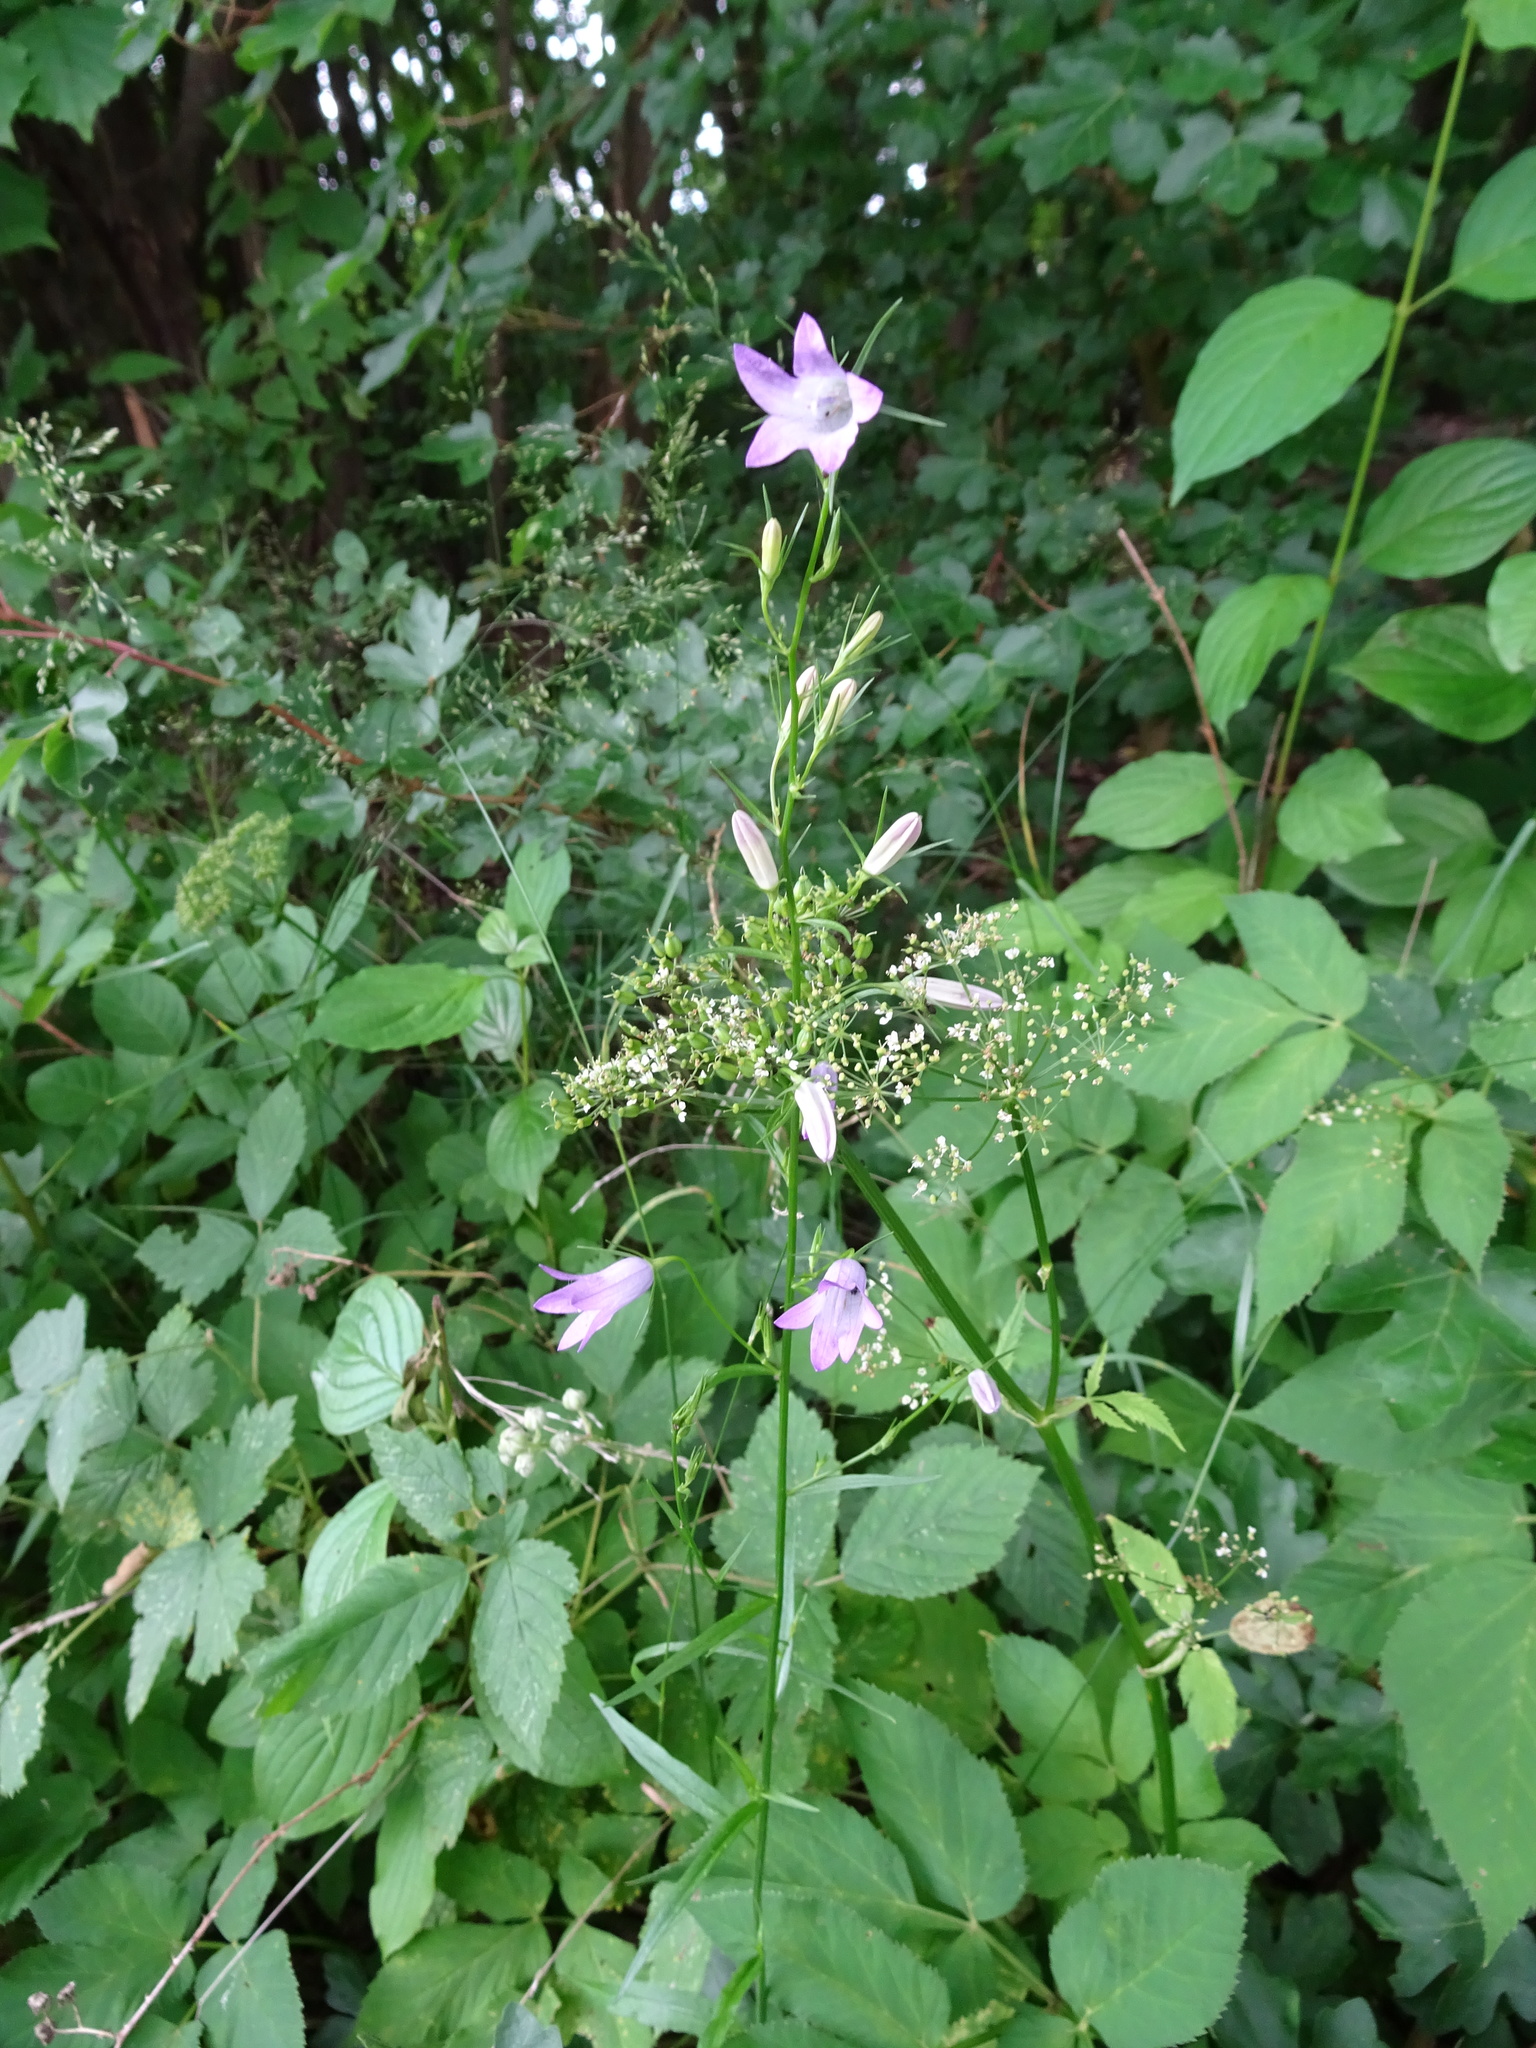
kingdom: Plantae
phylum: Tracheophyta
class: Magnoliopsida
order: Asterales
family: Campanulaceae
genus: Campanula
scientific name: Campanula rapunculus
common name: Rampion bellflower
